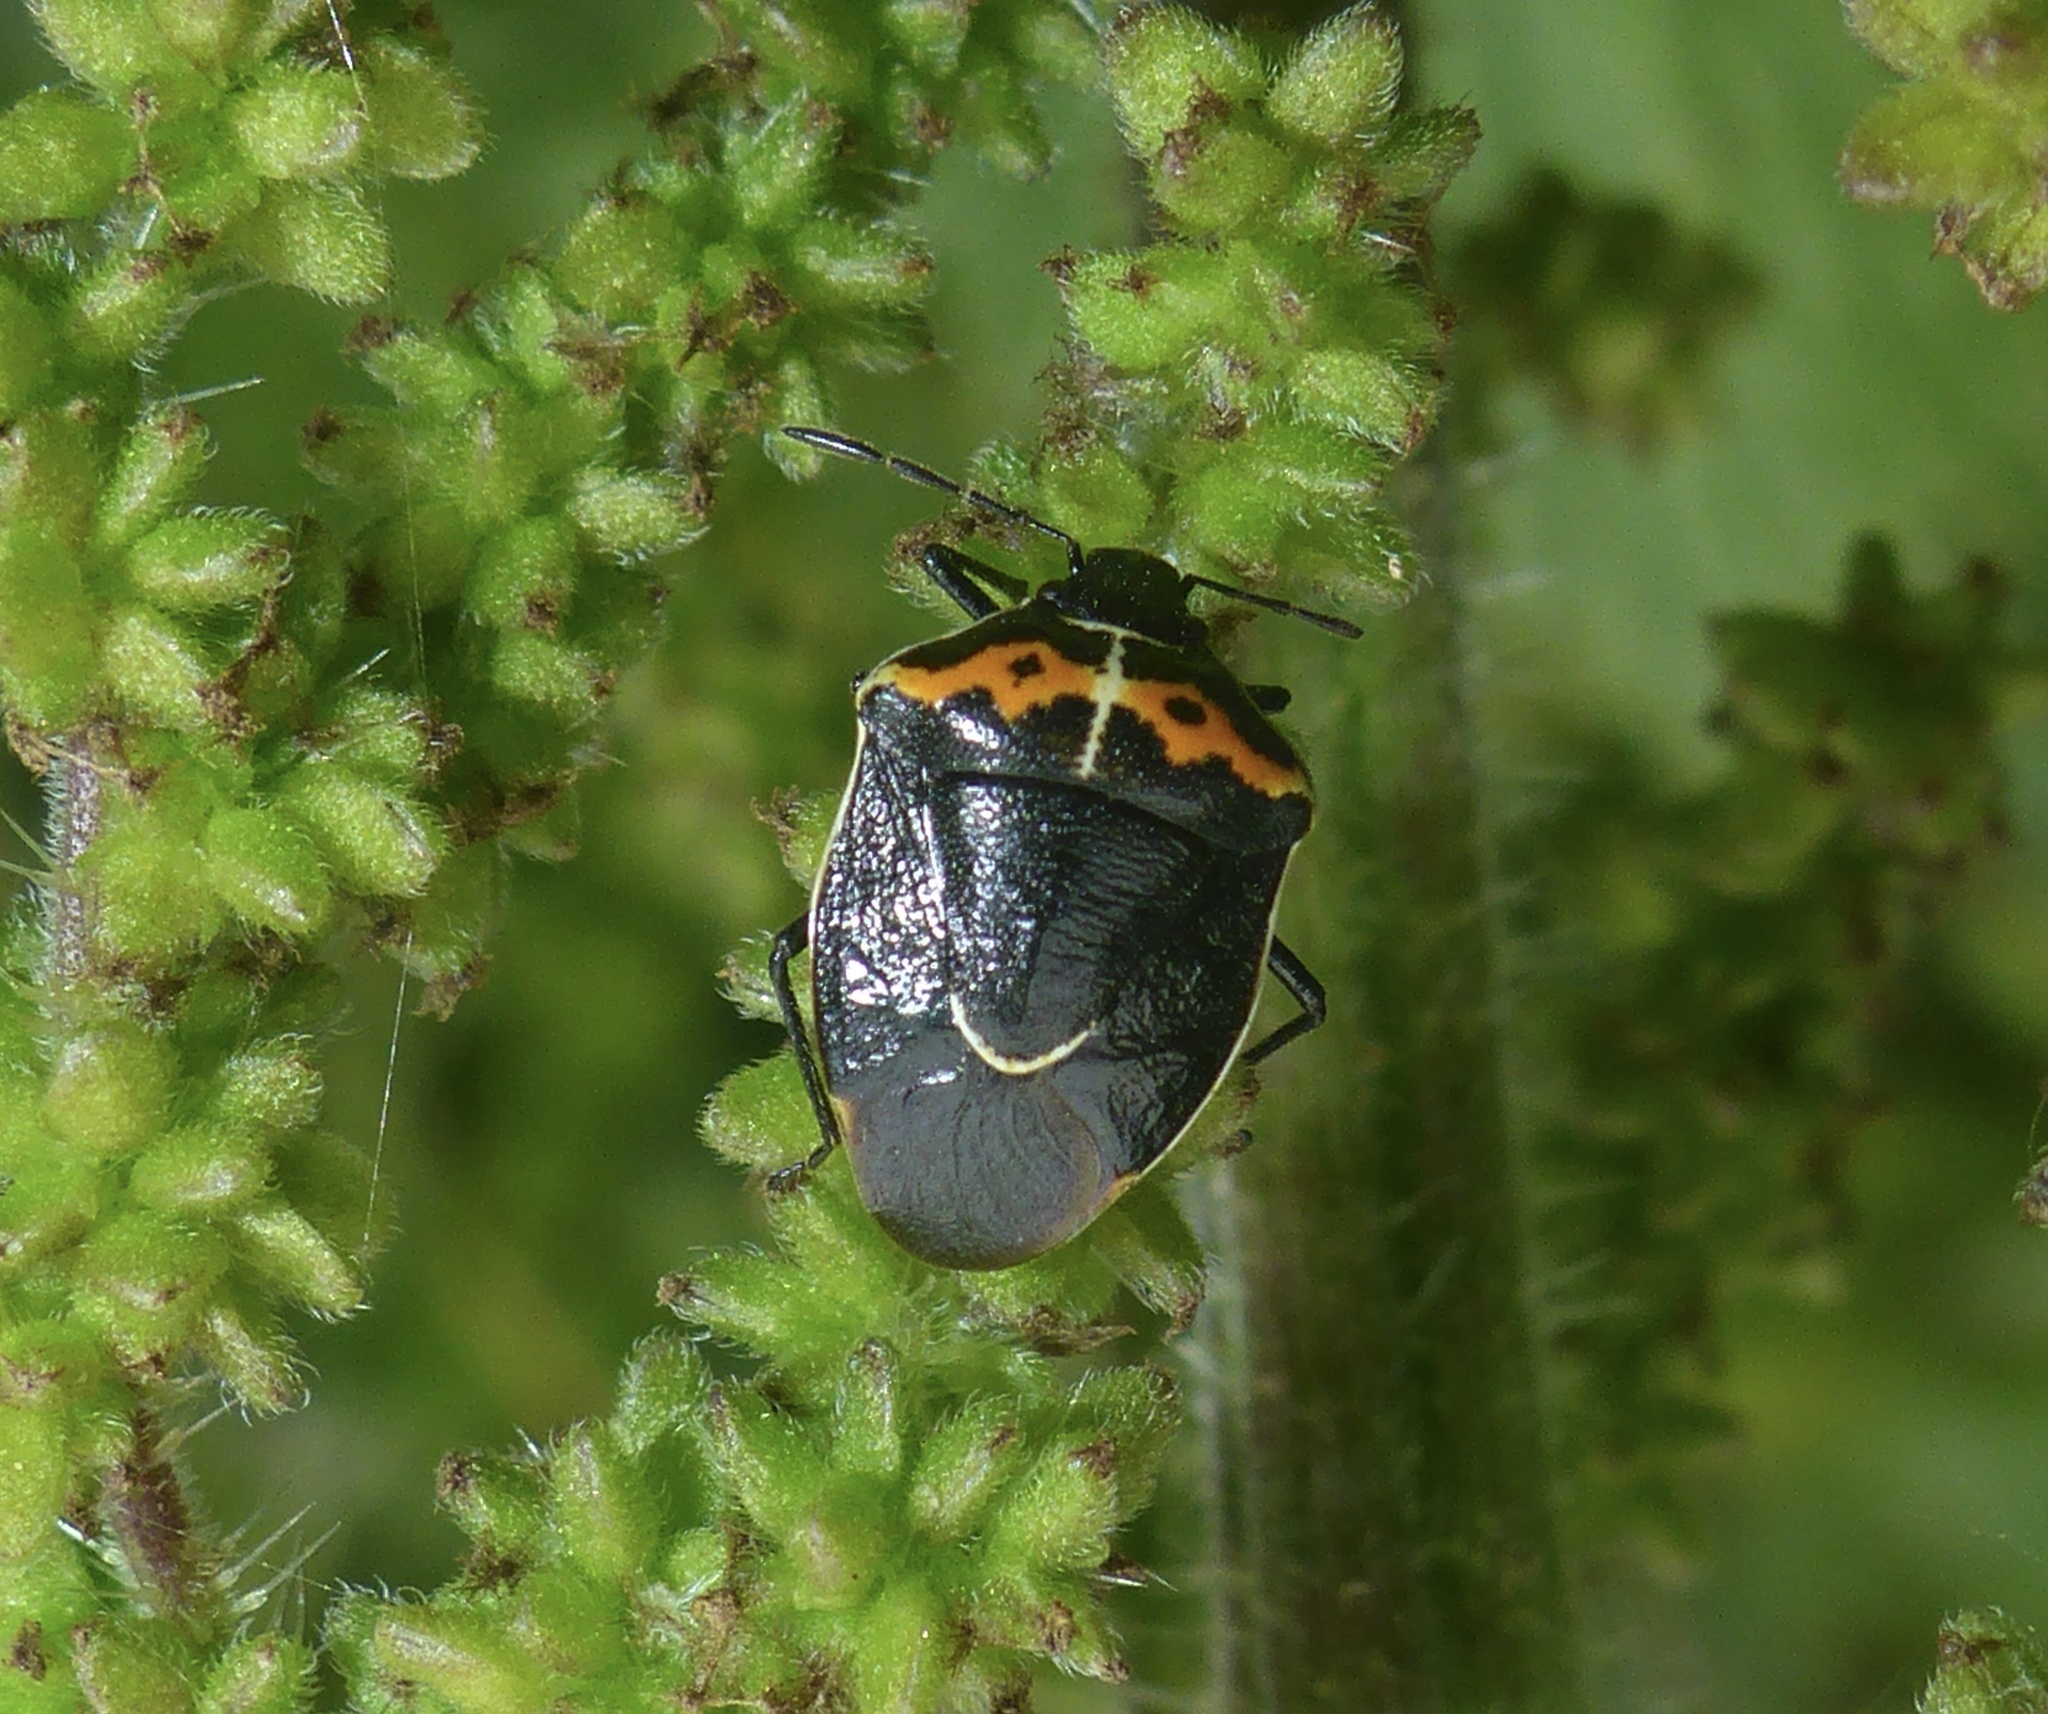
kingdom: Animalia
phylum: Arthropoda
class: Insecta
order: Hemiptera
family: Pentatomidae
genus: Cosmopepla
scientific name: Cosmopepla conspicillaris
